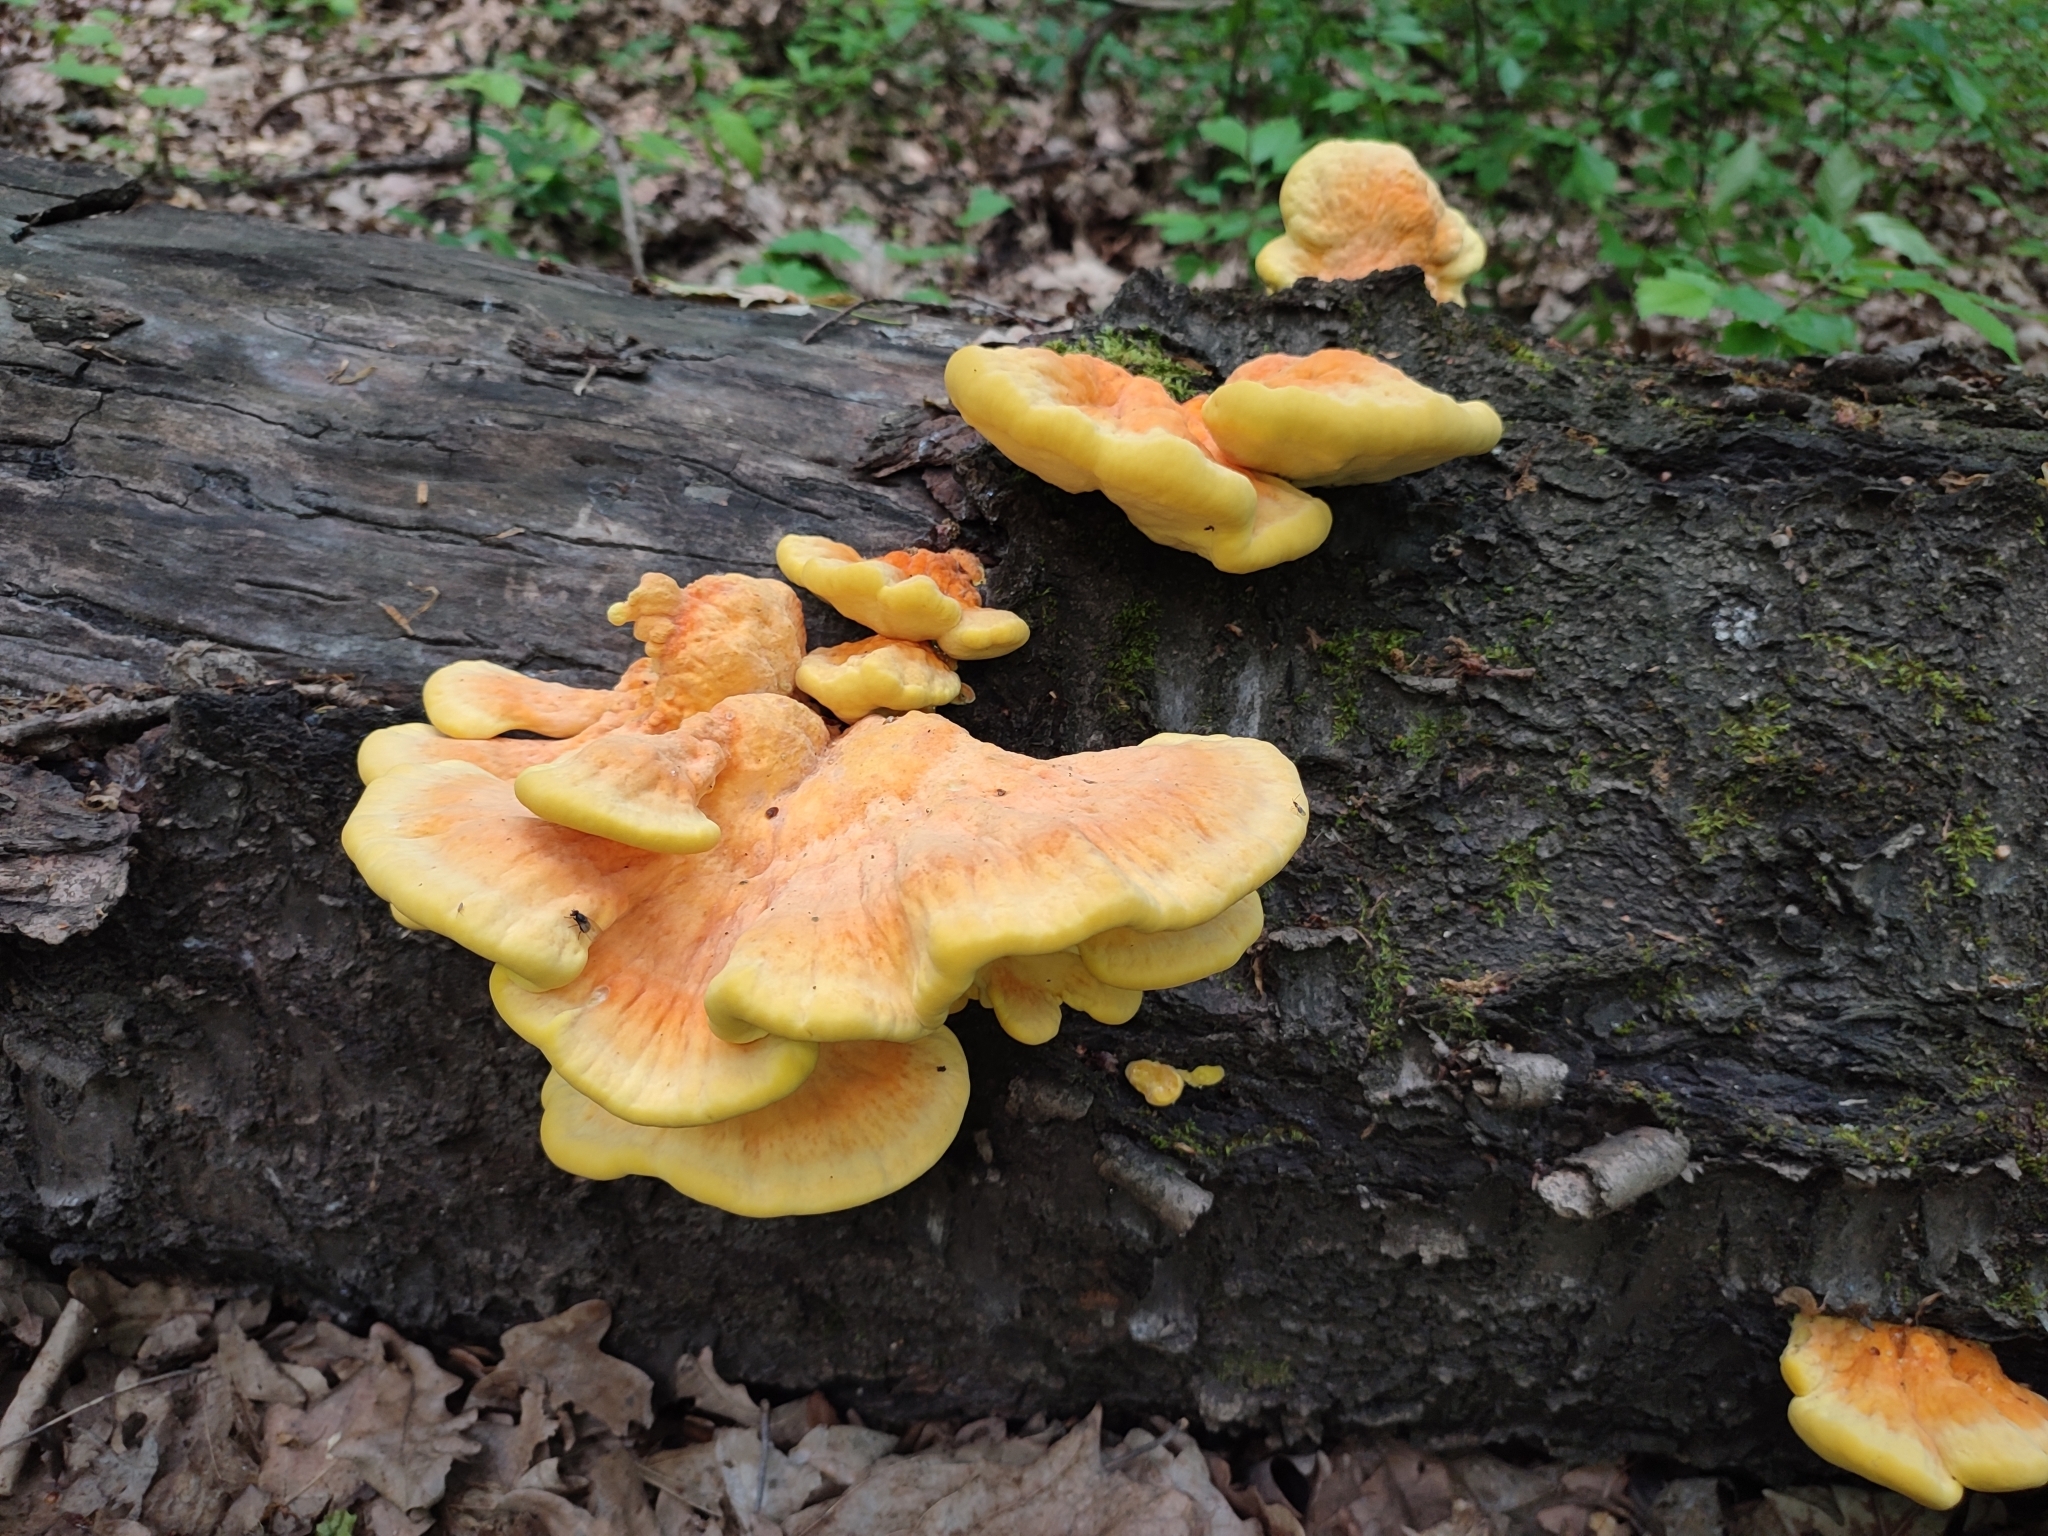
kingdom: Fungi
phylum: Basidiomycota
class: Agaricomycetes
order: Polyporales
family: Laetiporaceae
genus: Laetiporus
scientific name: Laetiporus sulphureus
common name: Chicken of the woods
